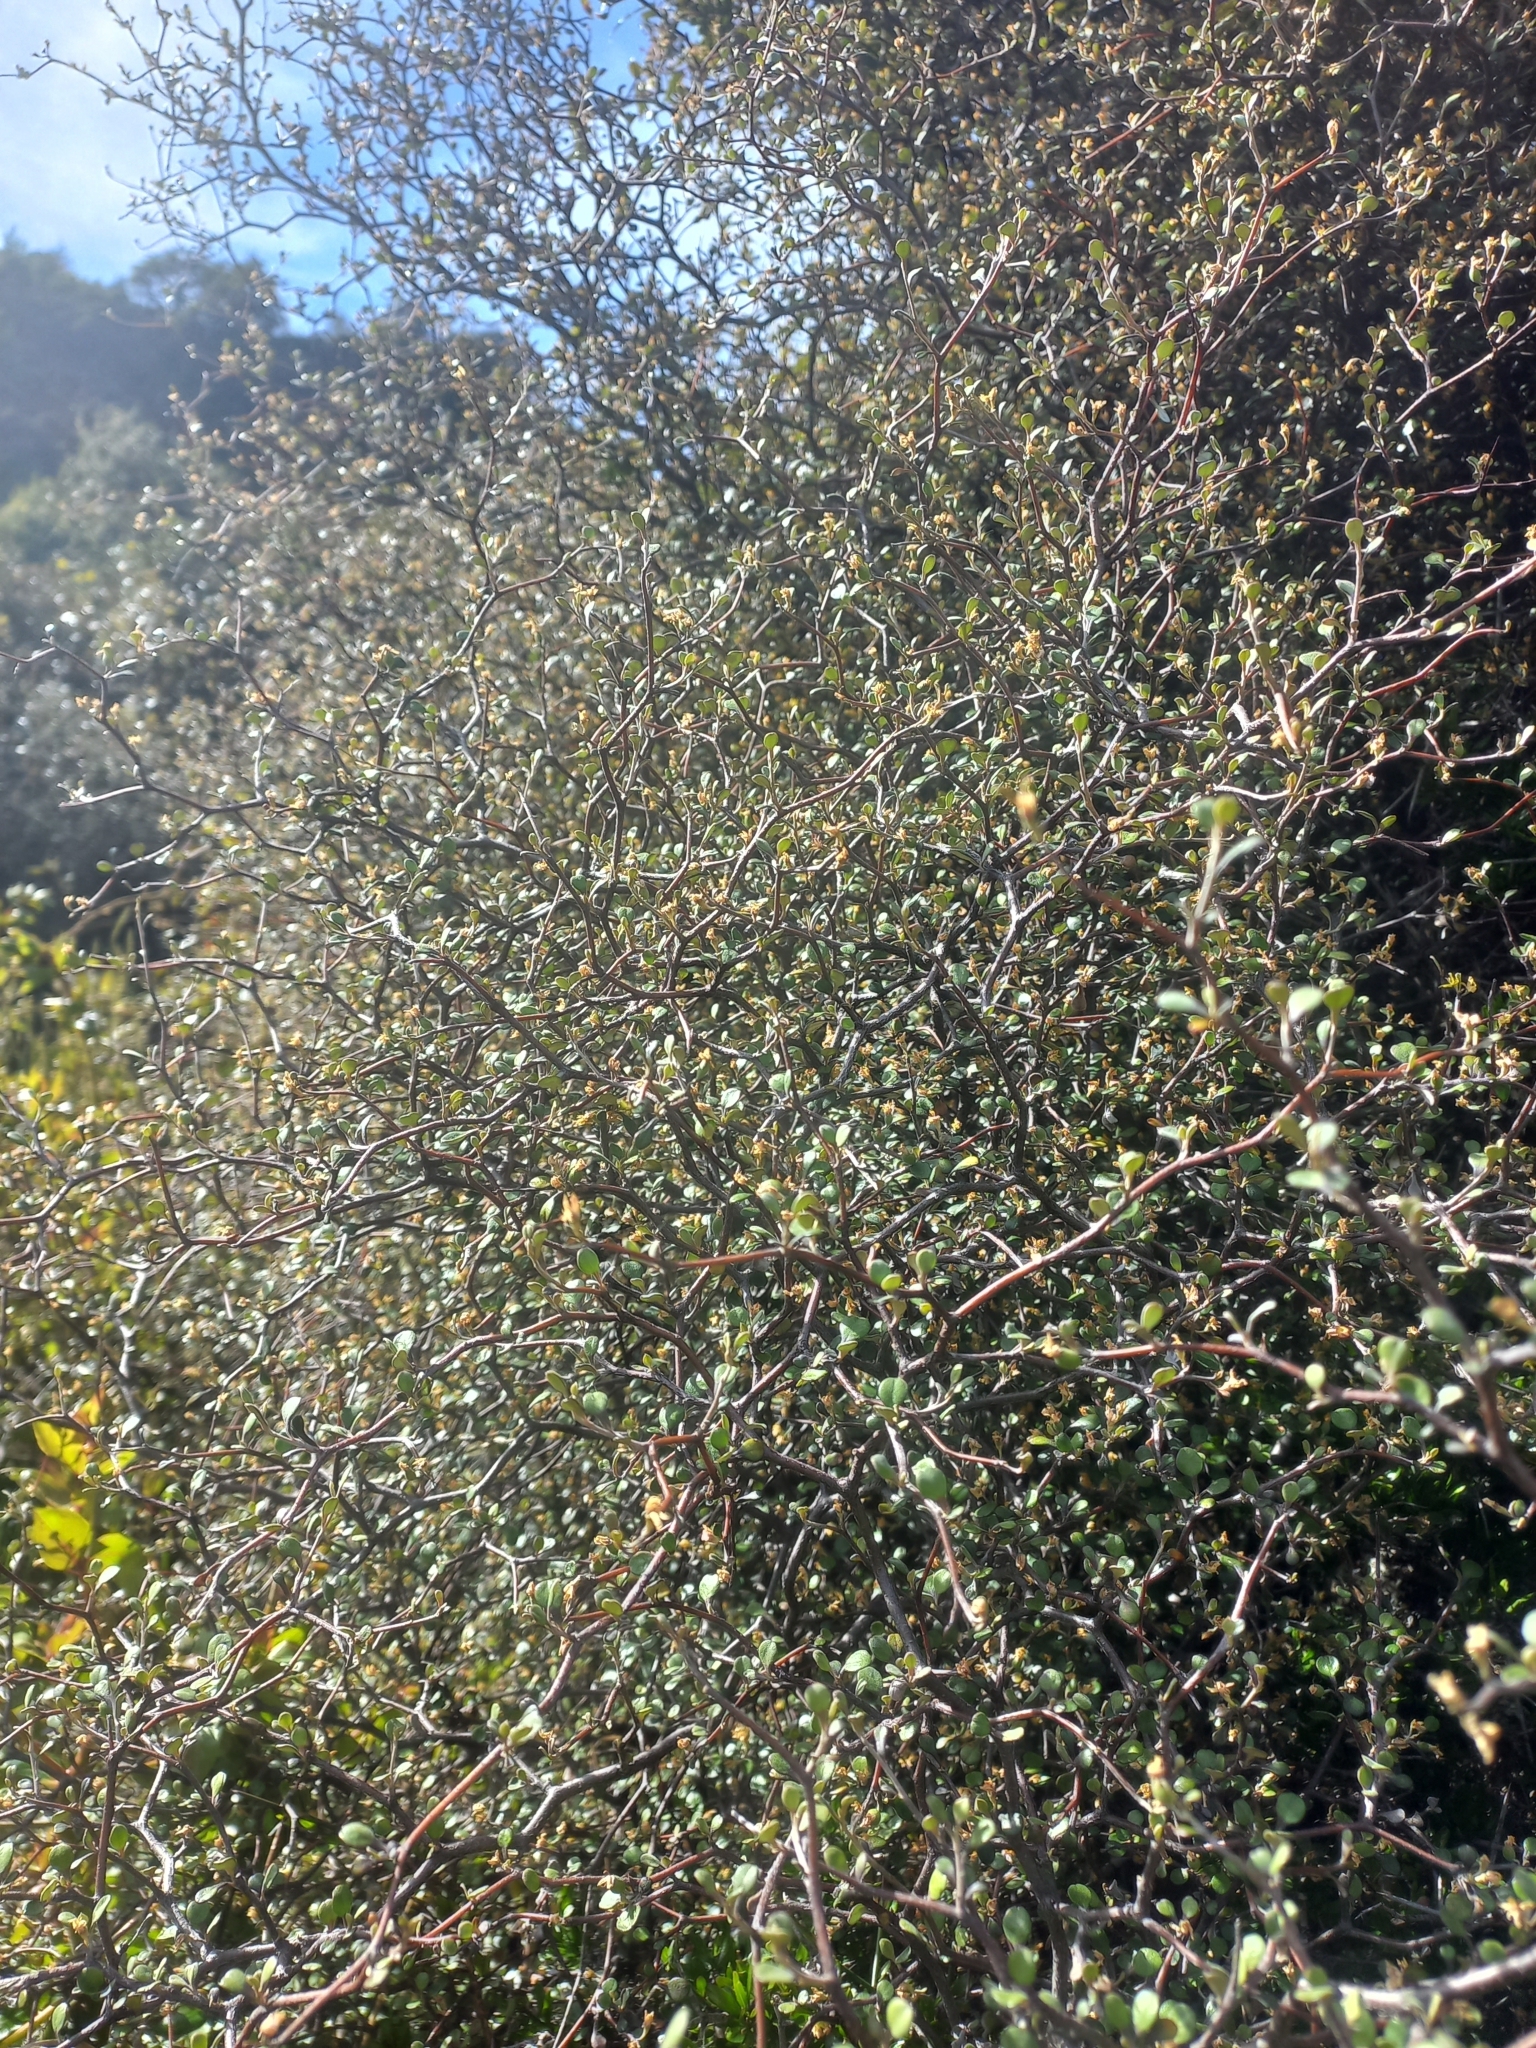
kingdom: Plantae
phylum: Tracheophyta
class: Magnoliopsida
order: Asterales
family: Argophyllaceae
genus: Corokia
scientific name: Corokia cotoneaster
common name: Wire nettingbush
